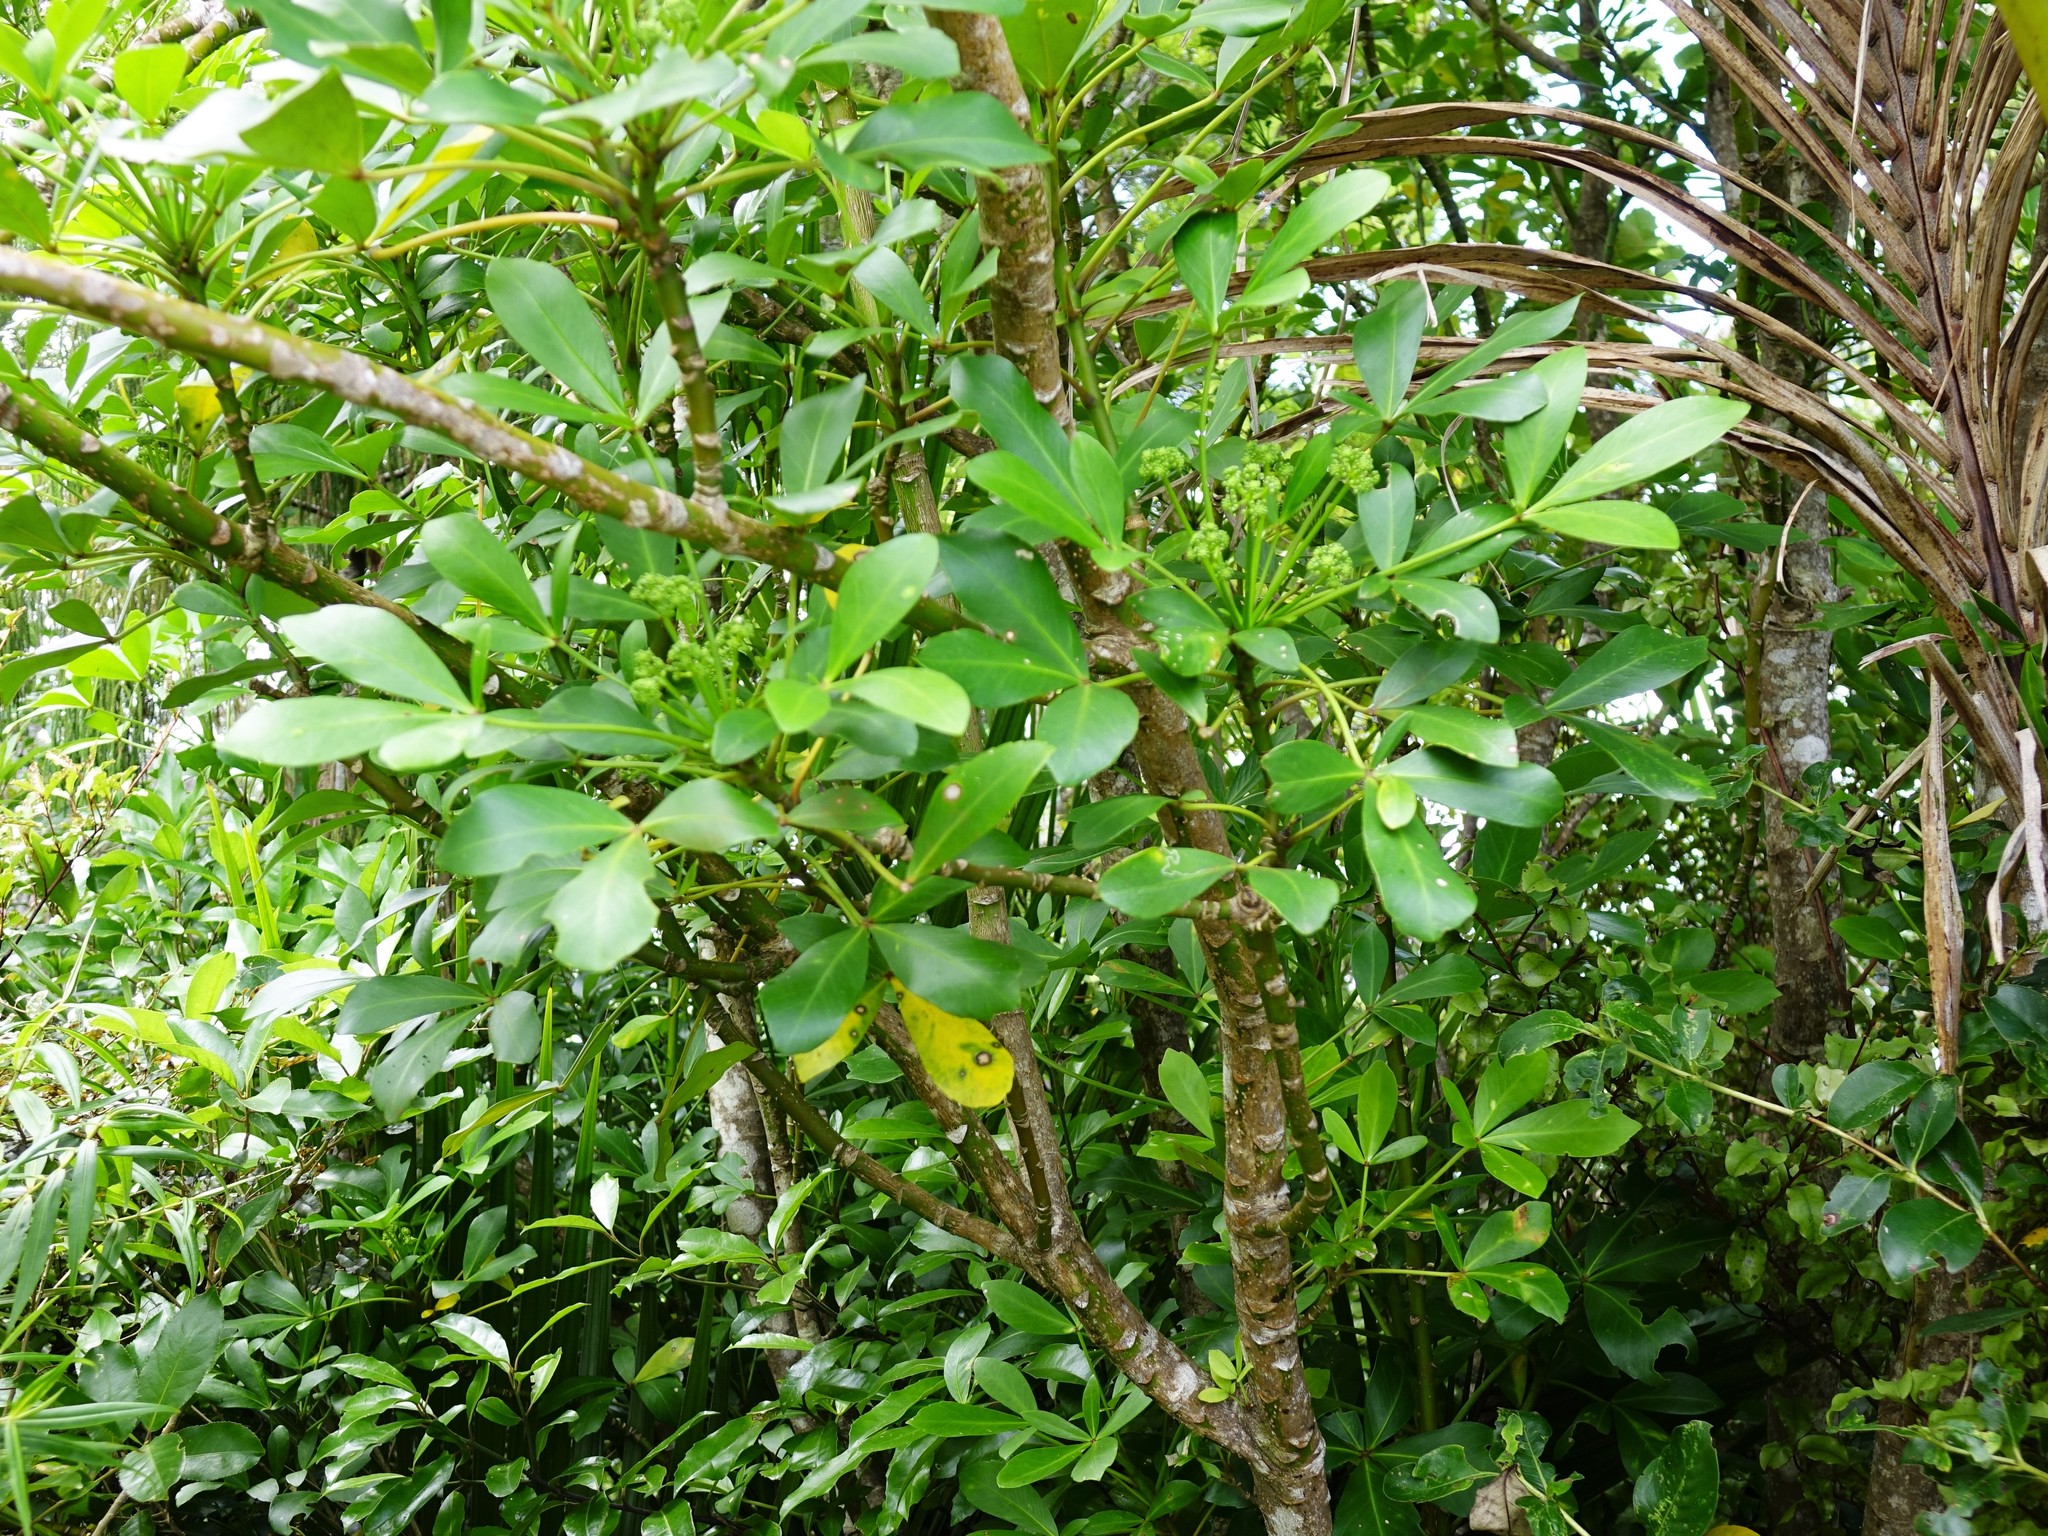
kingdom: Plantae
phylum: Tracheophyta
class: Magnoliopsida
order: Apiales
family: Araliaceae
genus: Pseudopanax
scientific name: Pseudopanax lessonii
